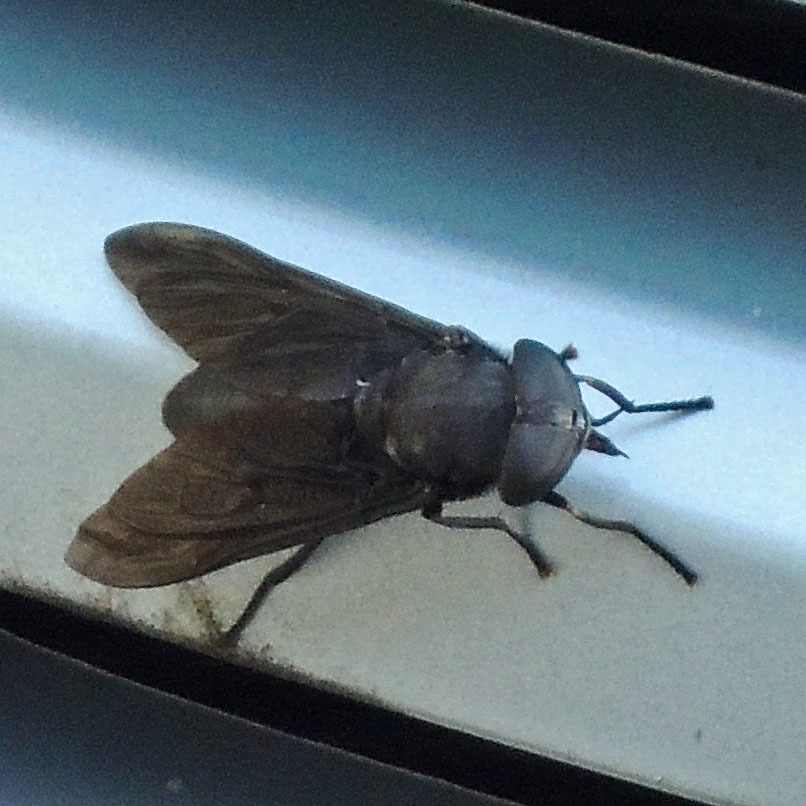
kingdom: Animalia
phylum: Arthropoda
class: Insecta
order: Diptera
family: Tabanidae
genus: Tabanus
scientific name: Tabanus atratus
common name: Black horse fly
